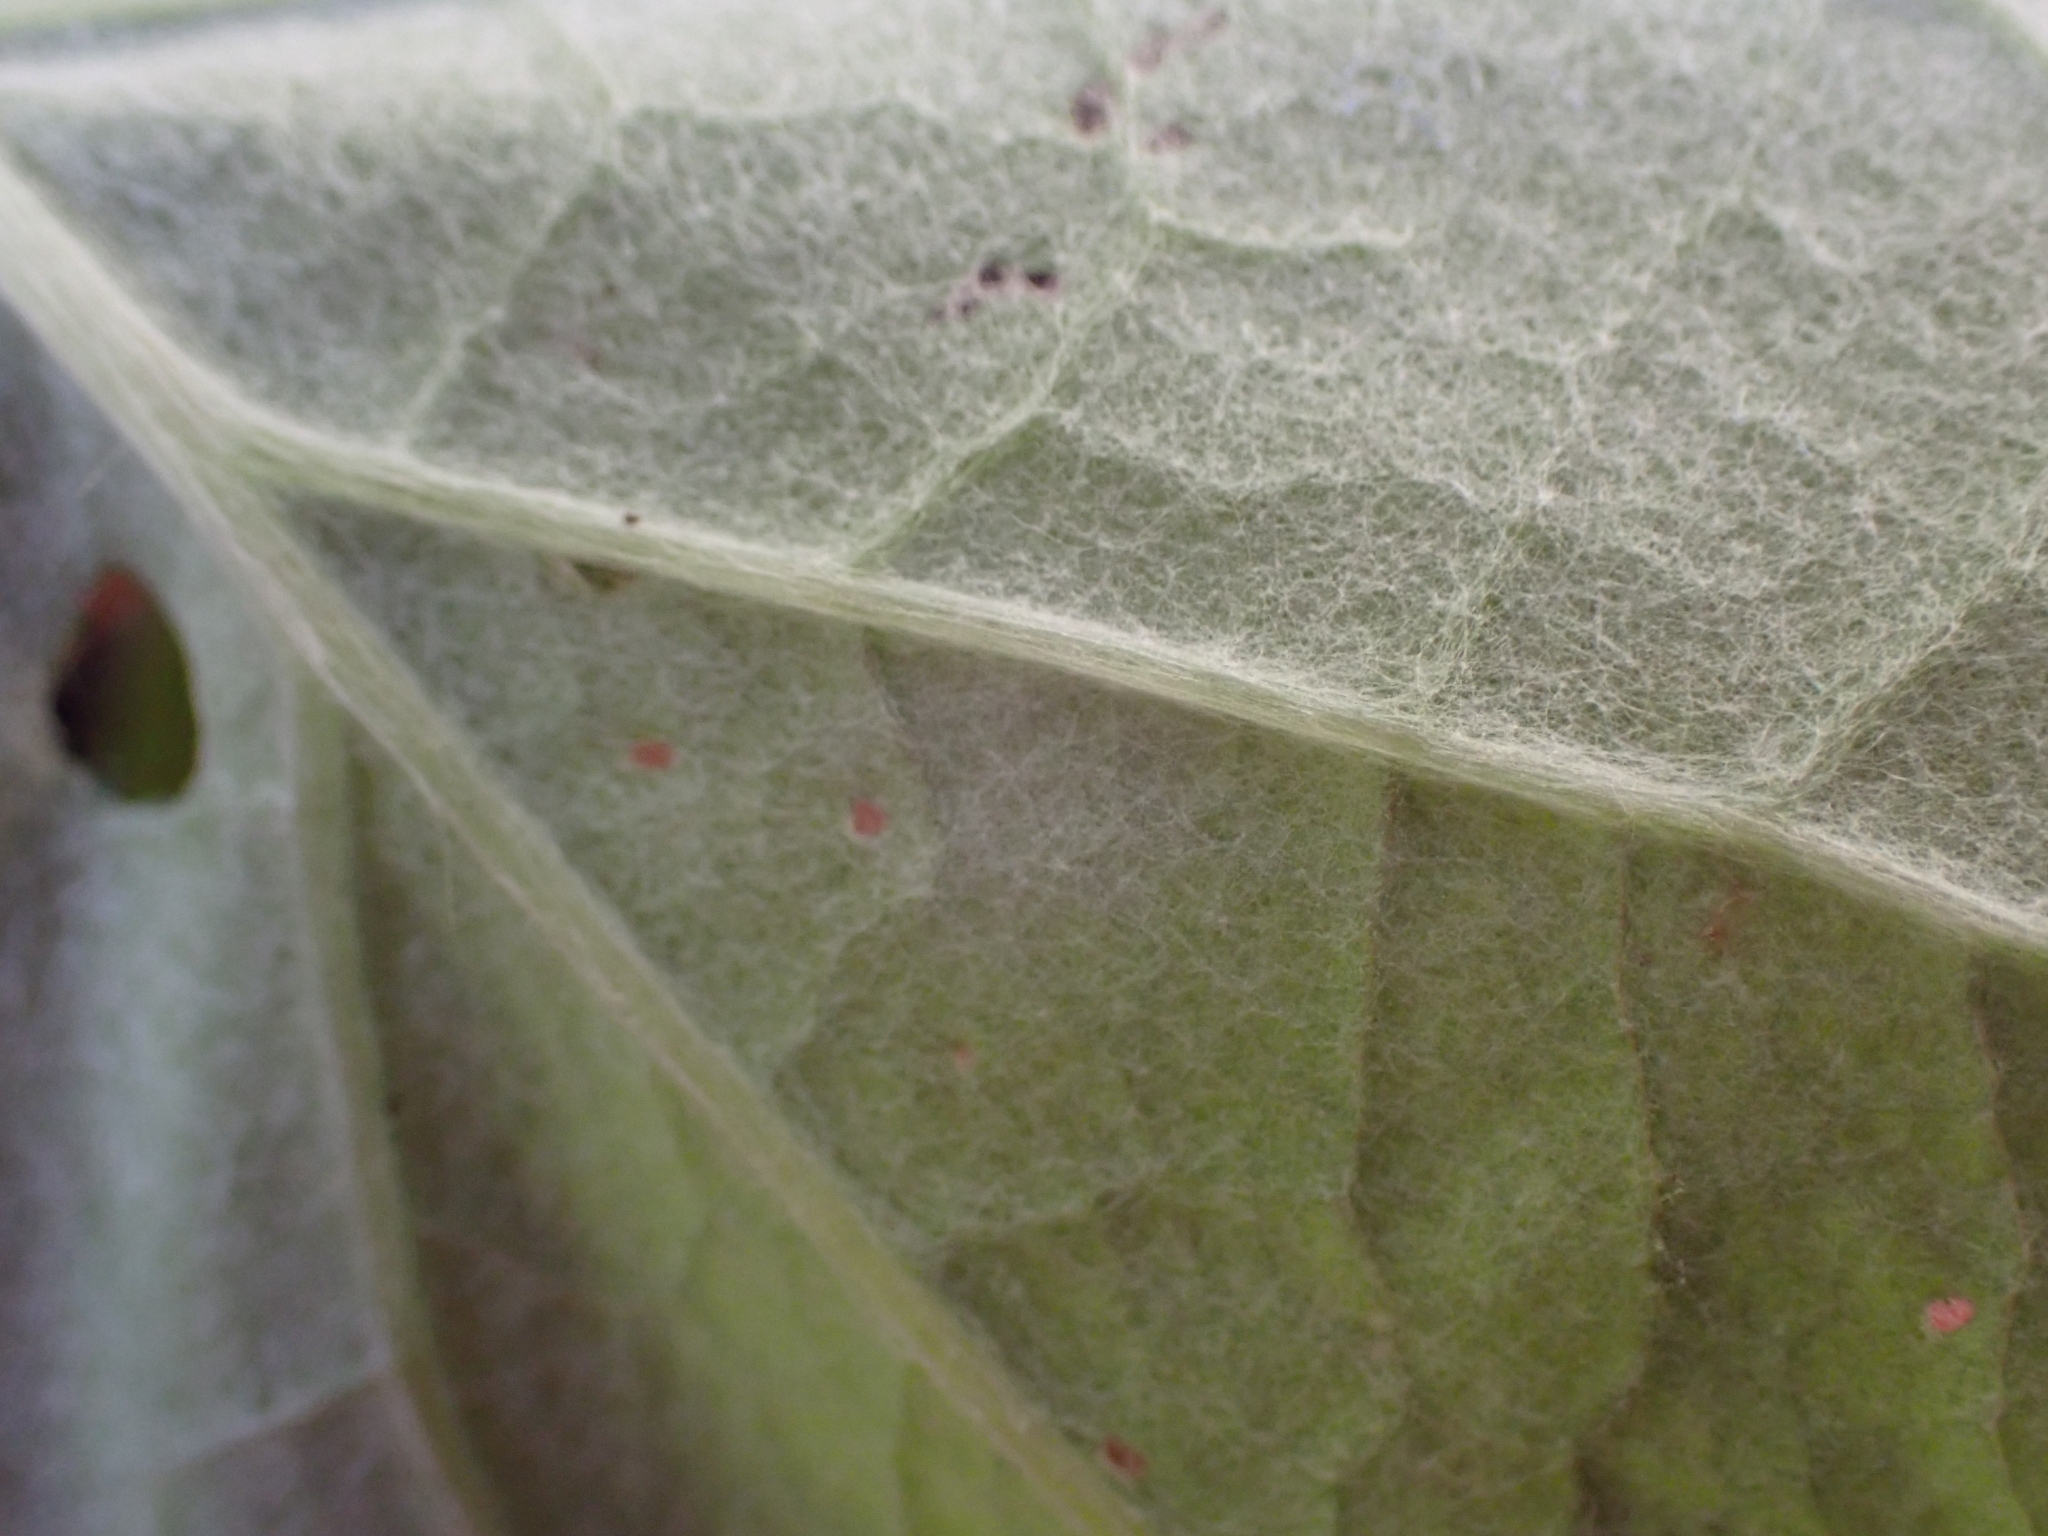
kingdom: Plantae
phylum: Tracheophyta
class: Magnoliopsida
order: Asterales
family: Asteraceae
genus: Adenocaulon
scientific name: Adenocaulon bicolor
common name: Trailplant
